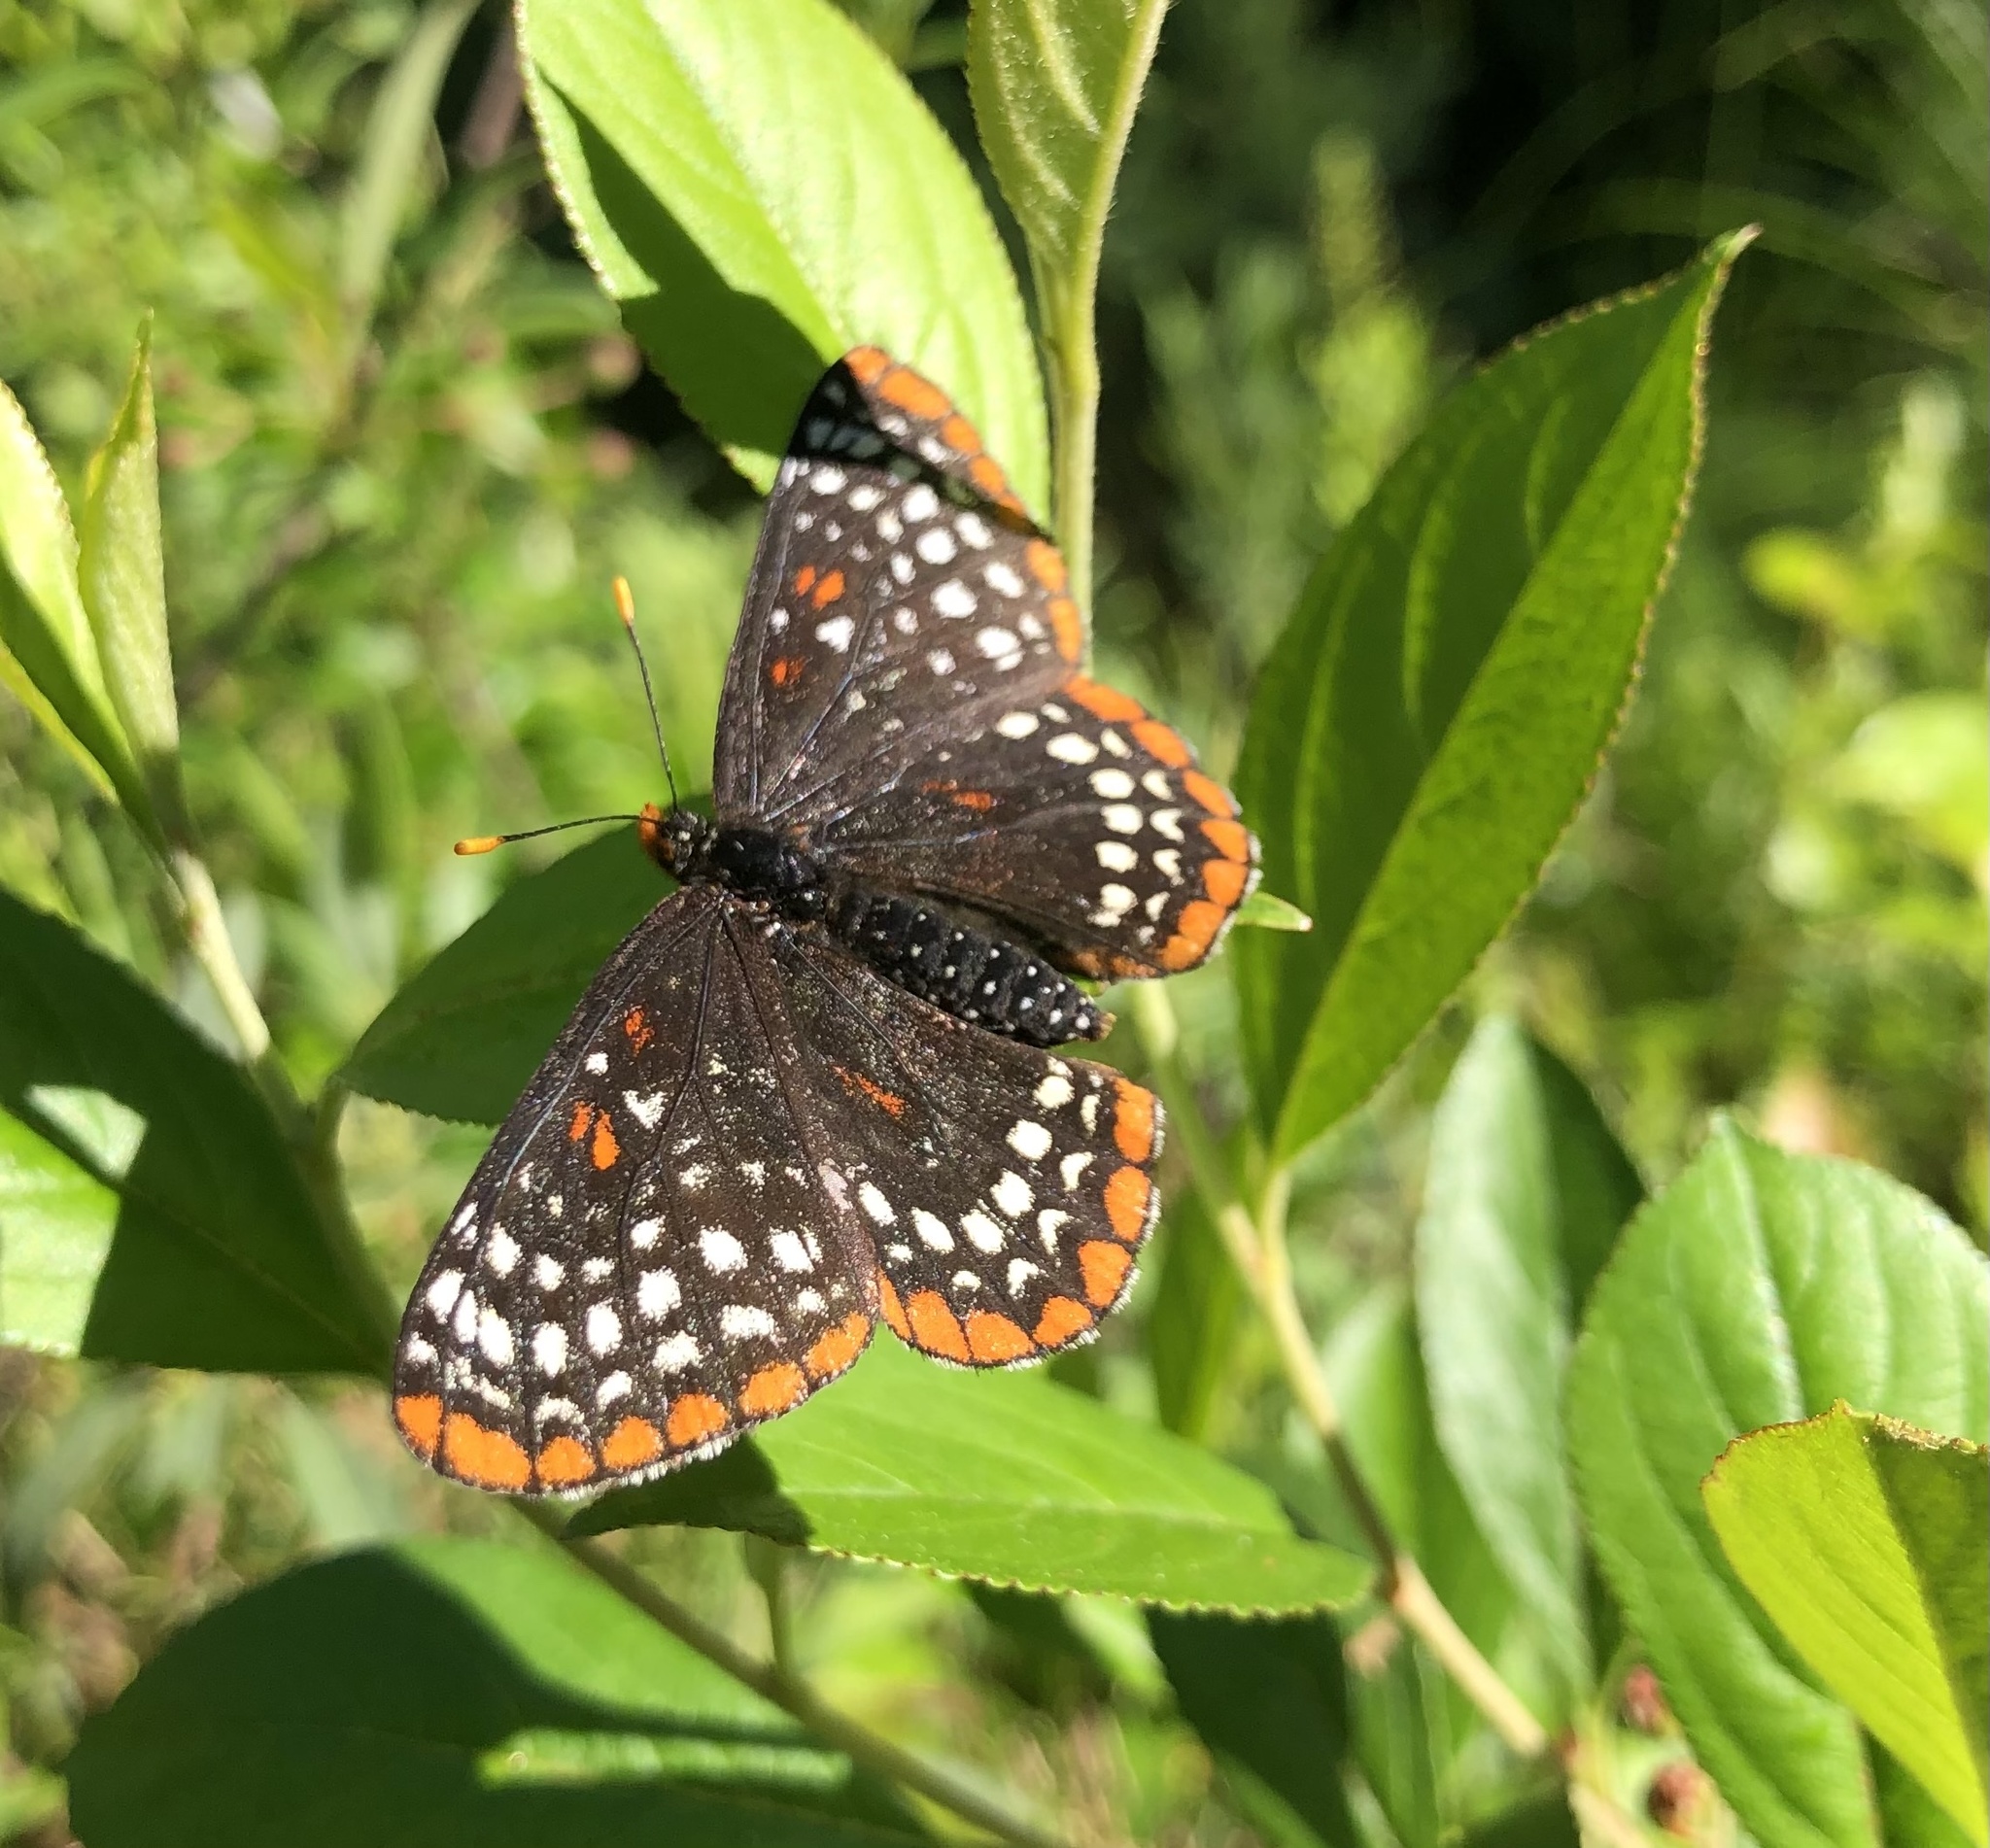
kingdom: Animalia
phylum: Arthropoda
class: Insecta
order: Lepidoptera
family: Nymphalidae
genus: Euphydryas
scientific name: Euphydryas phaeton
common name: Baltimore checkerspot
